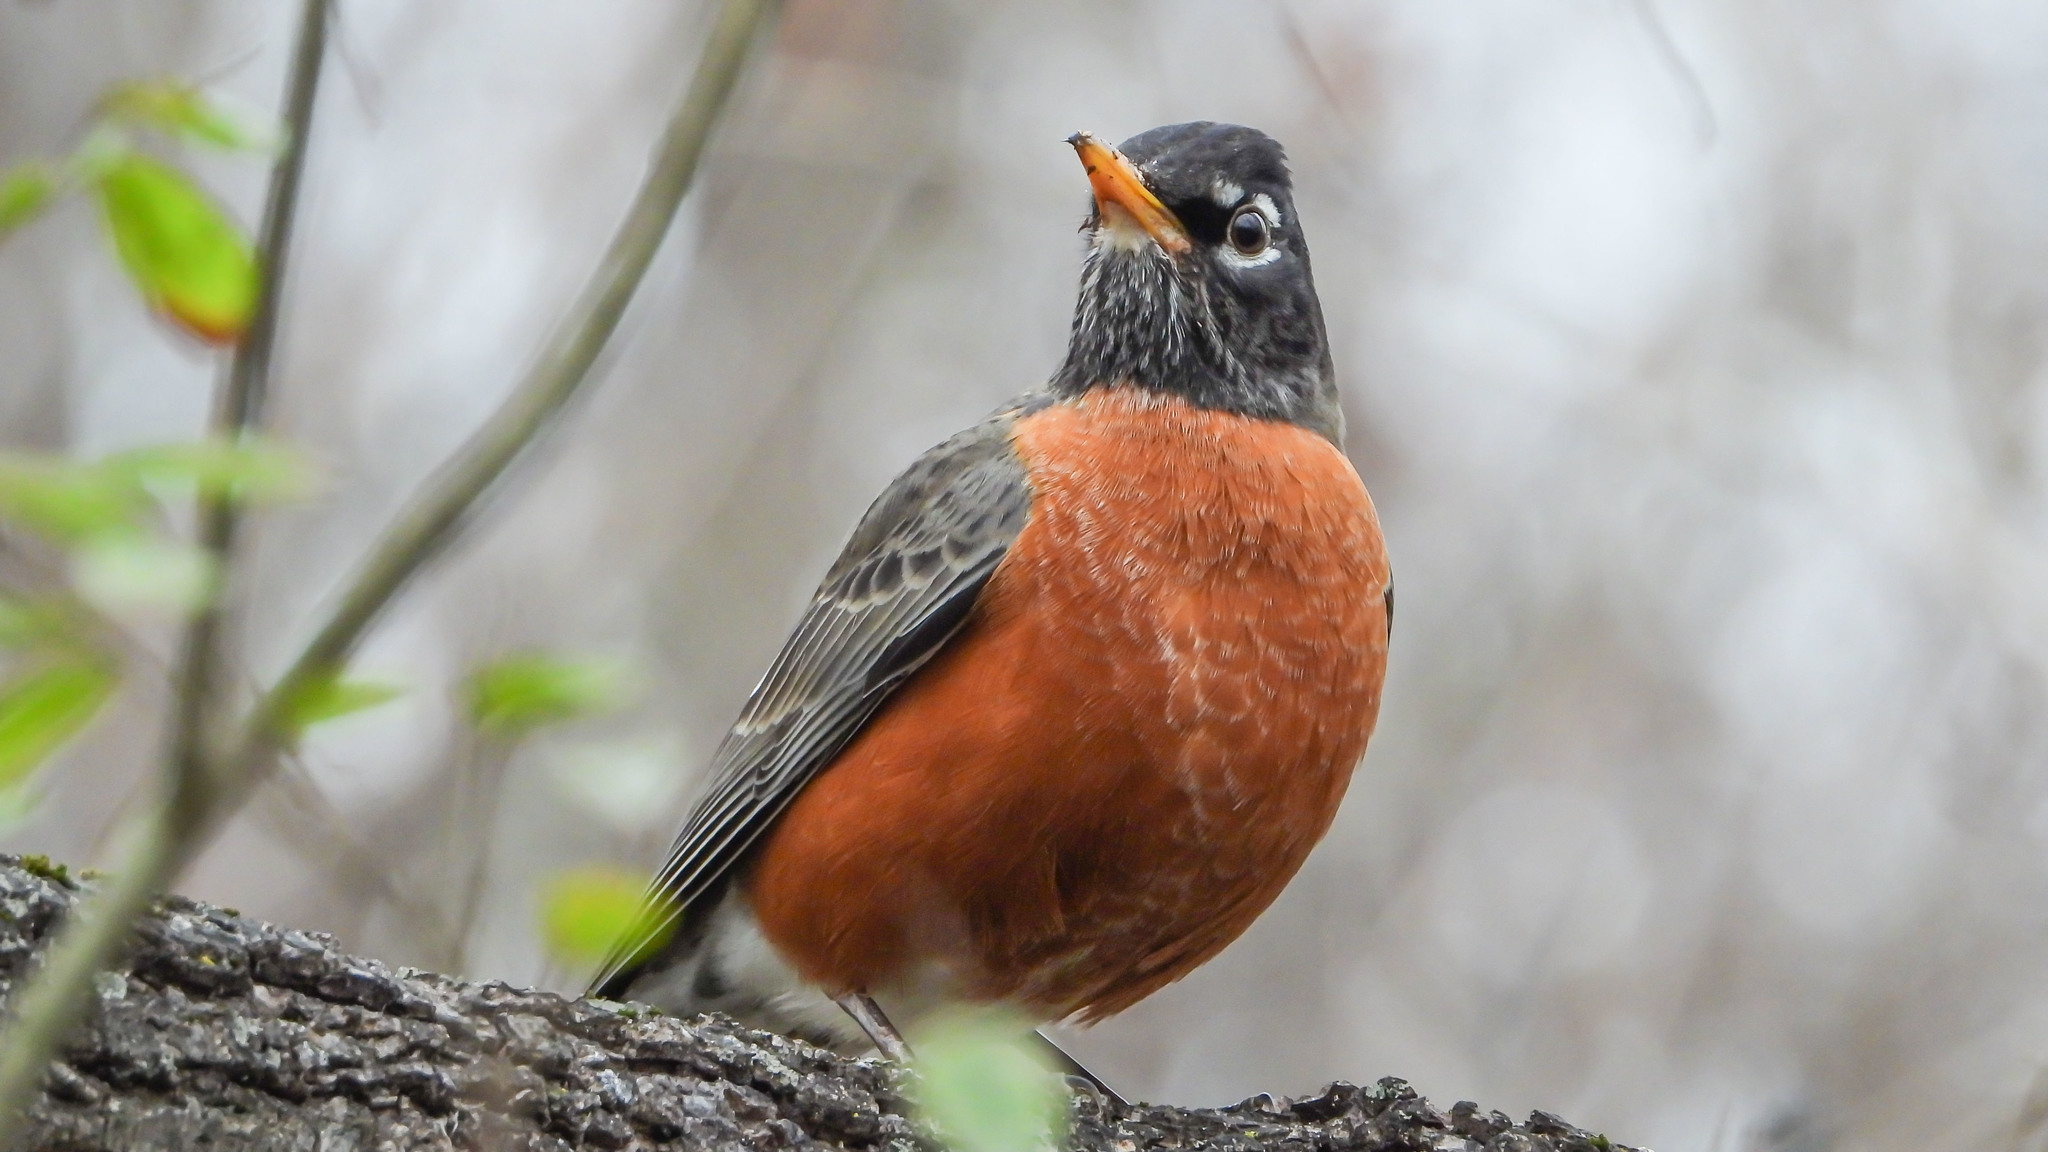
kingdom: Animalia
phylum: Chordata
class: Aves
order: Passeriformes
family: Turdidae
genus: Turdus
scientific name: Turdus migratorius
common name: American robin
